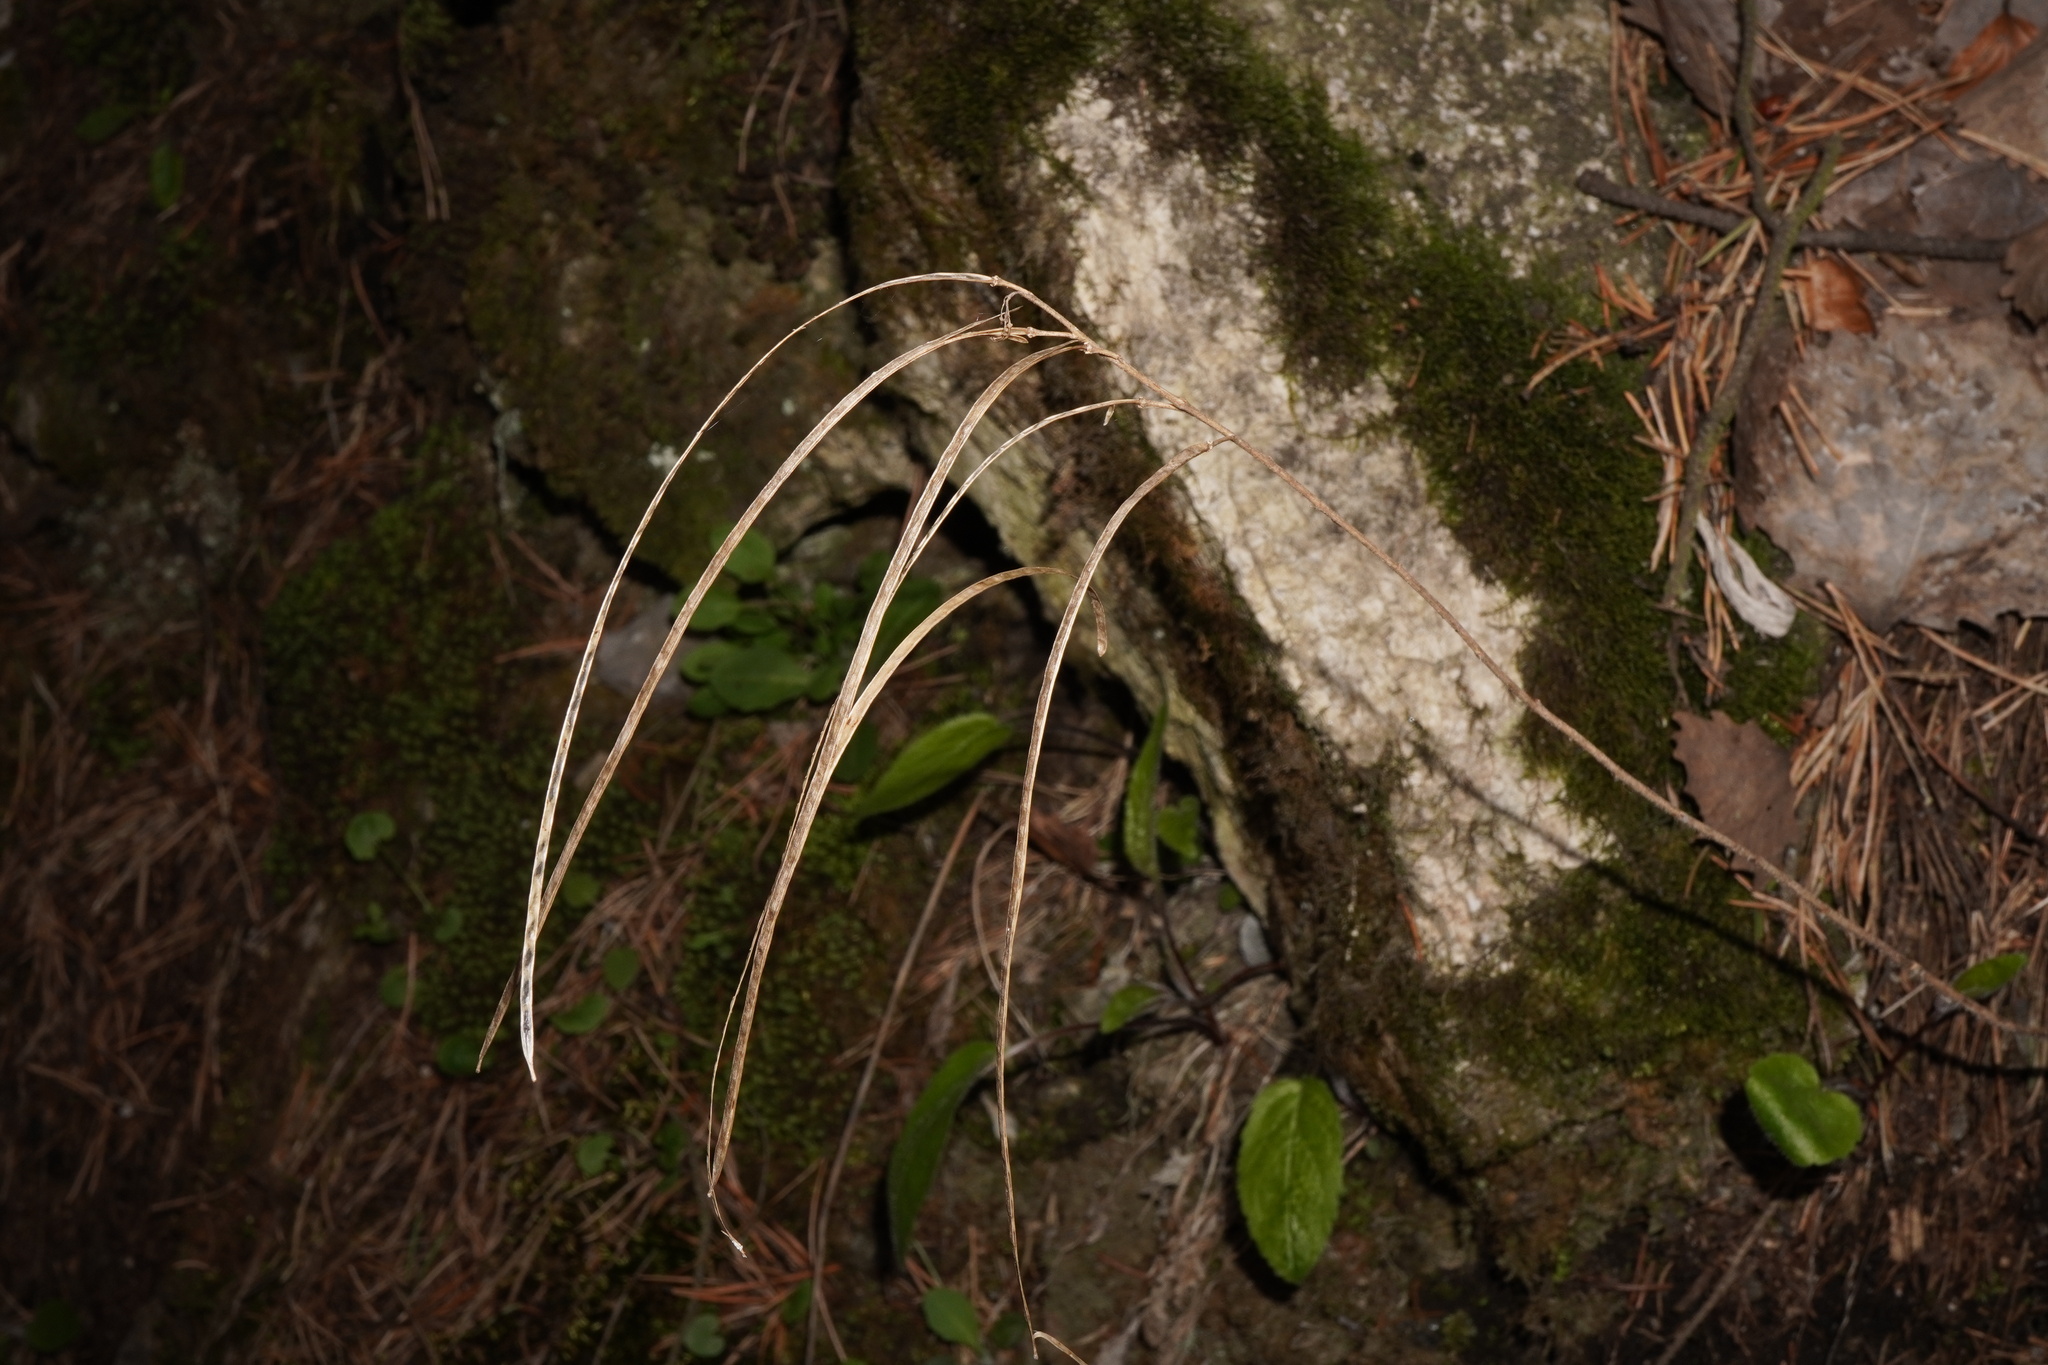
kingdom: Plantae
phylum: Tracheophyta
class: Magnoliopsida
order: Brassicales
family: Brassicaceae
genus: Pseudoturritis
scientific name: Pseudoturritis turrita
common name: Tower cress
